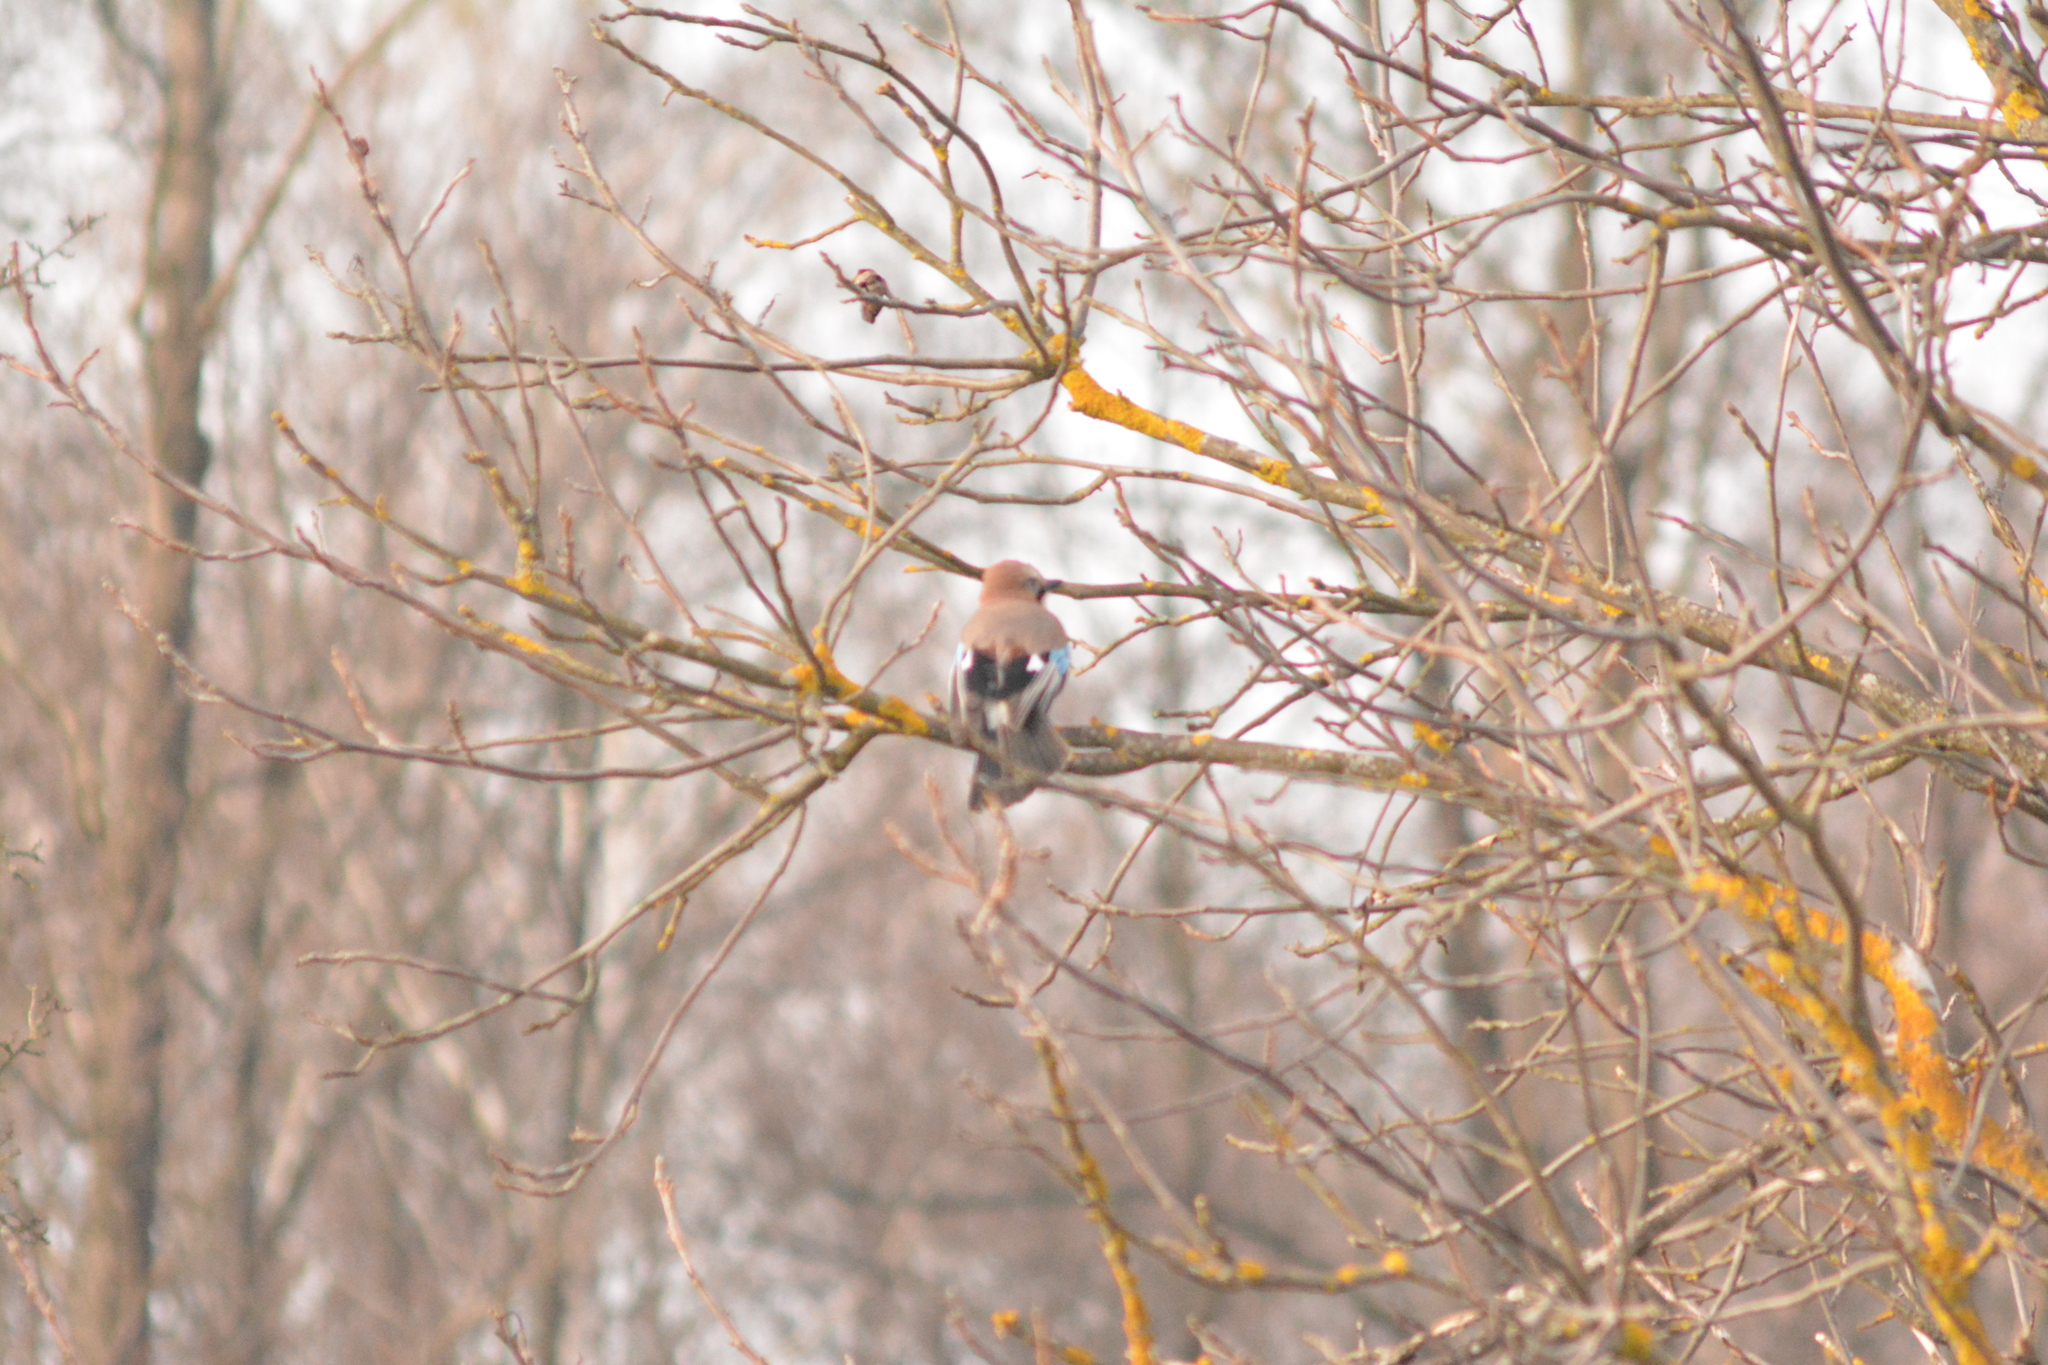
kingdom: Animalia
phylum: Chordata
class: Aves
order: Passeriformes
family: Corvidae
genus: Garrulus
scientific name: Garrulus glandarius
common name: Eurasian jay
